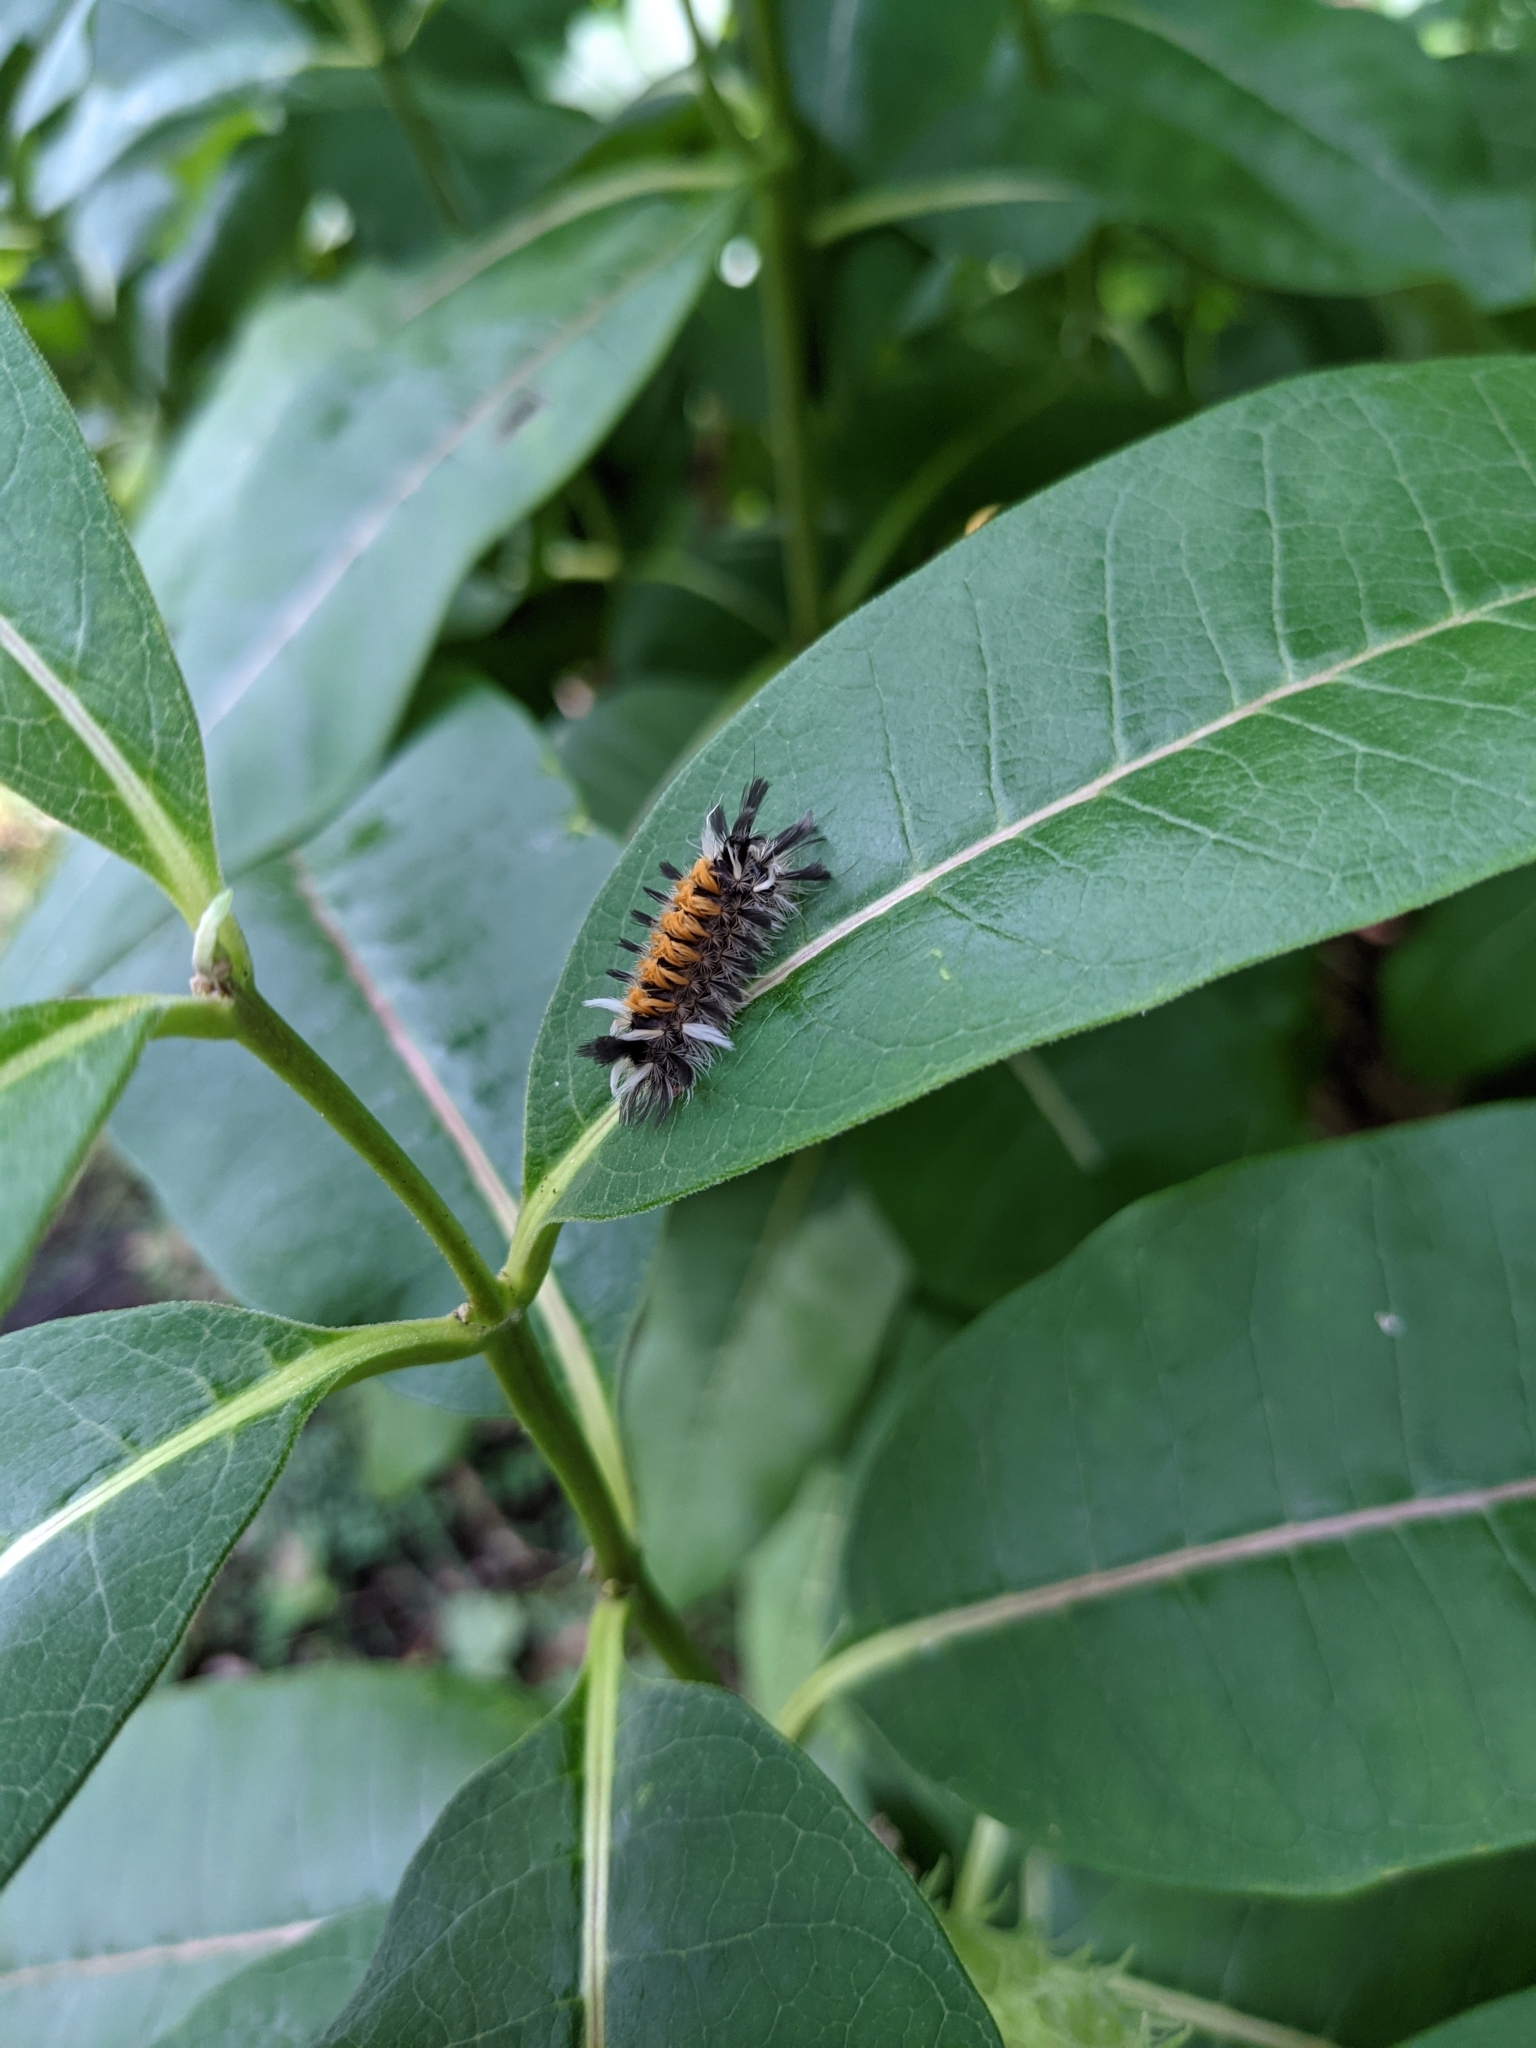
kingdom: Animalia
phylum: Arthropoda
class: Insecta
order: Lepidoptera
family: Erebidae
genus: Euchaetes
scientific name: Euchaetes egle
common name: Milkweed tussock moth
